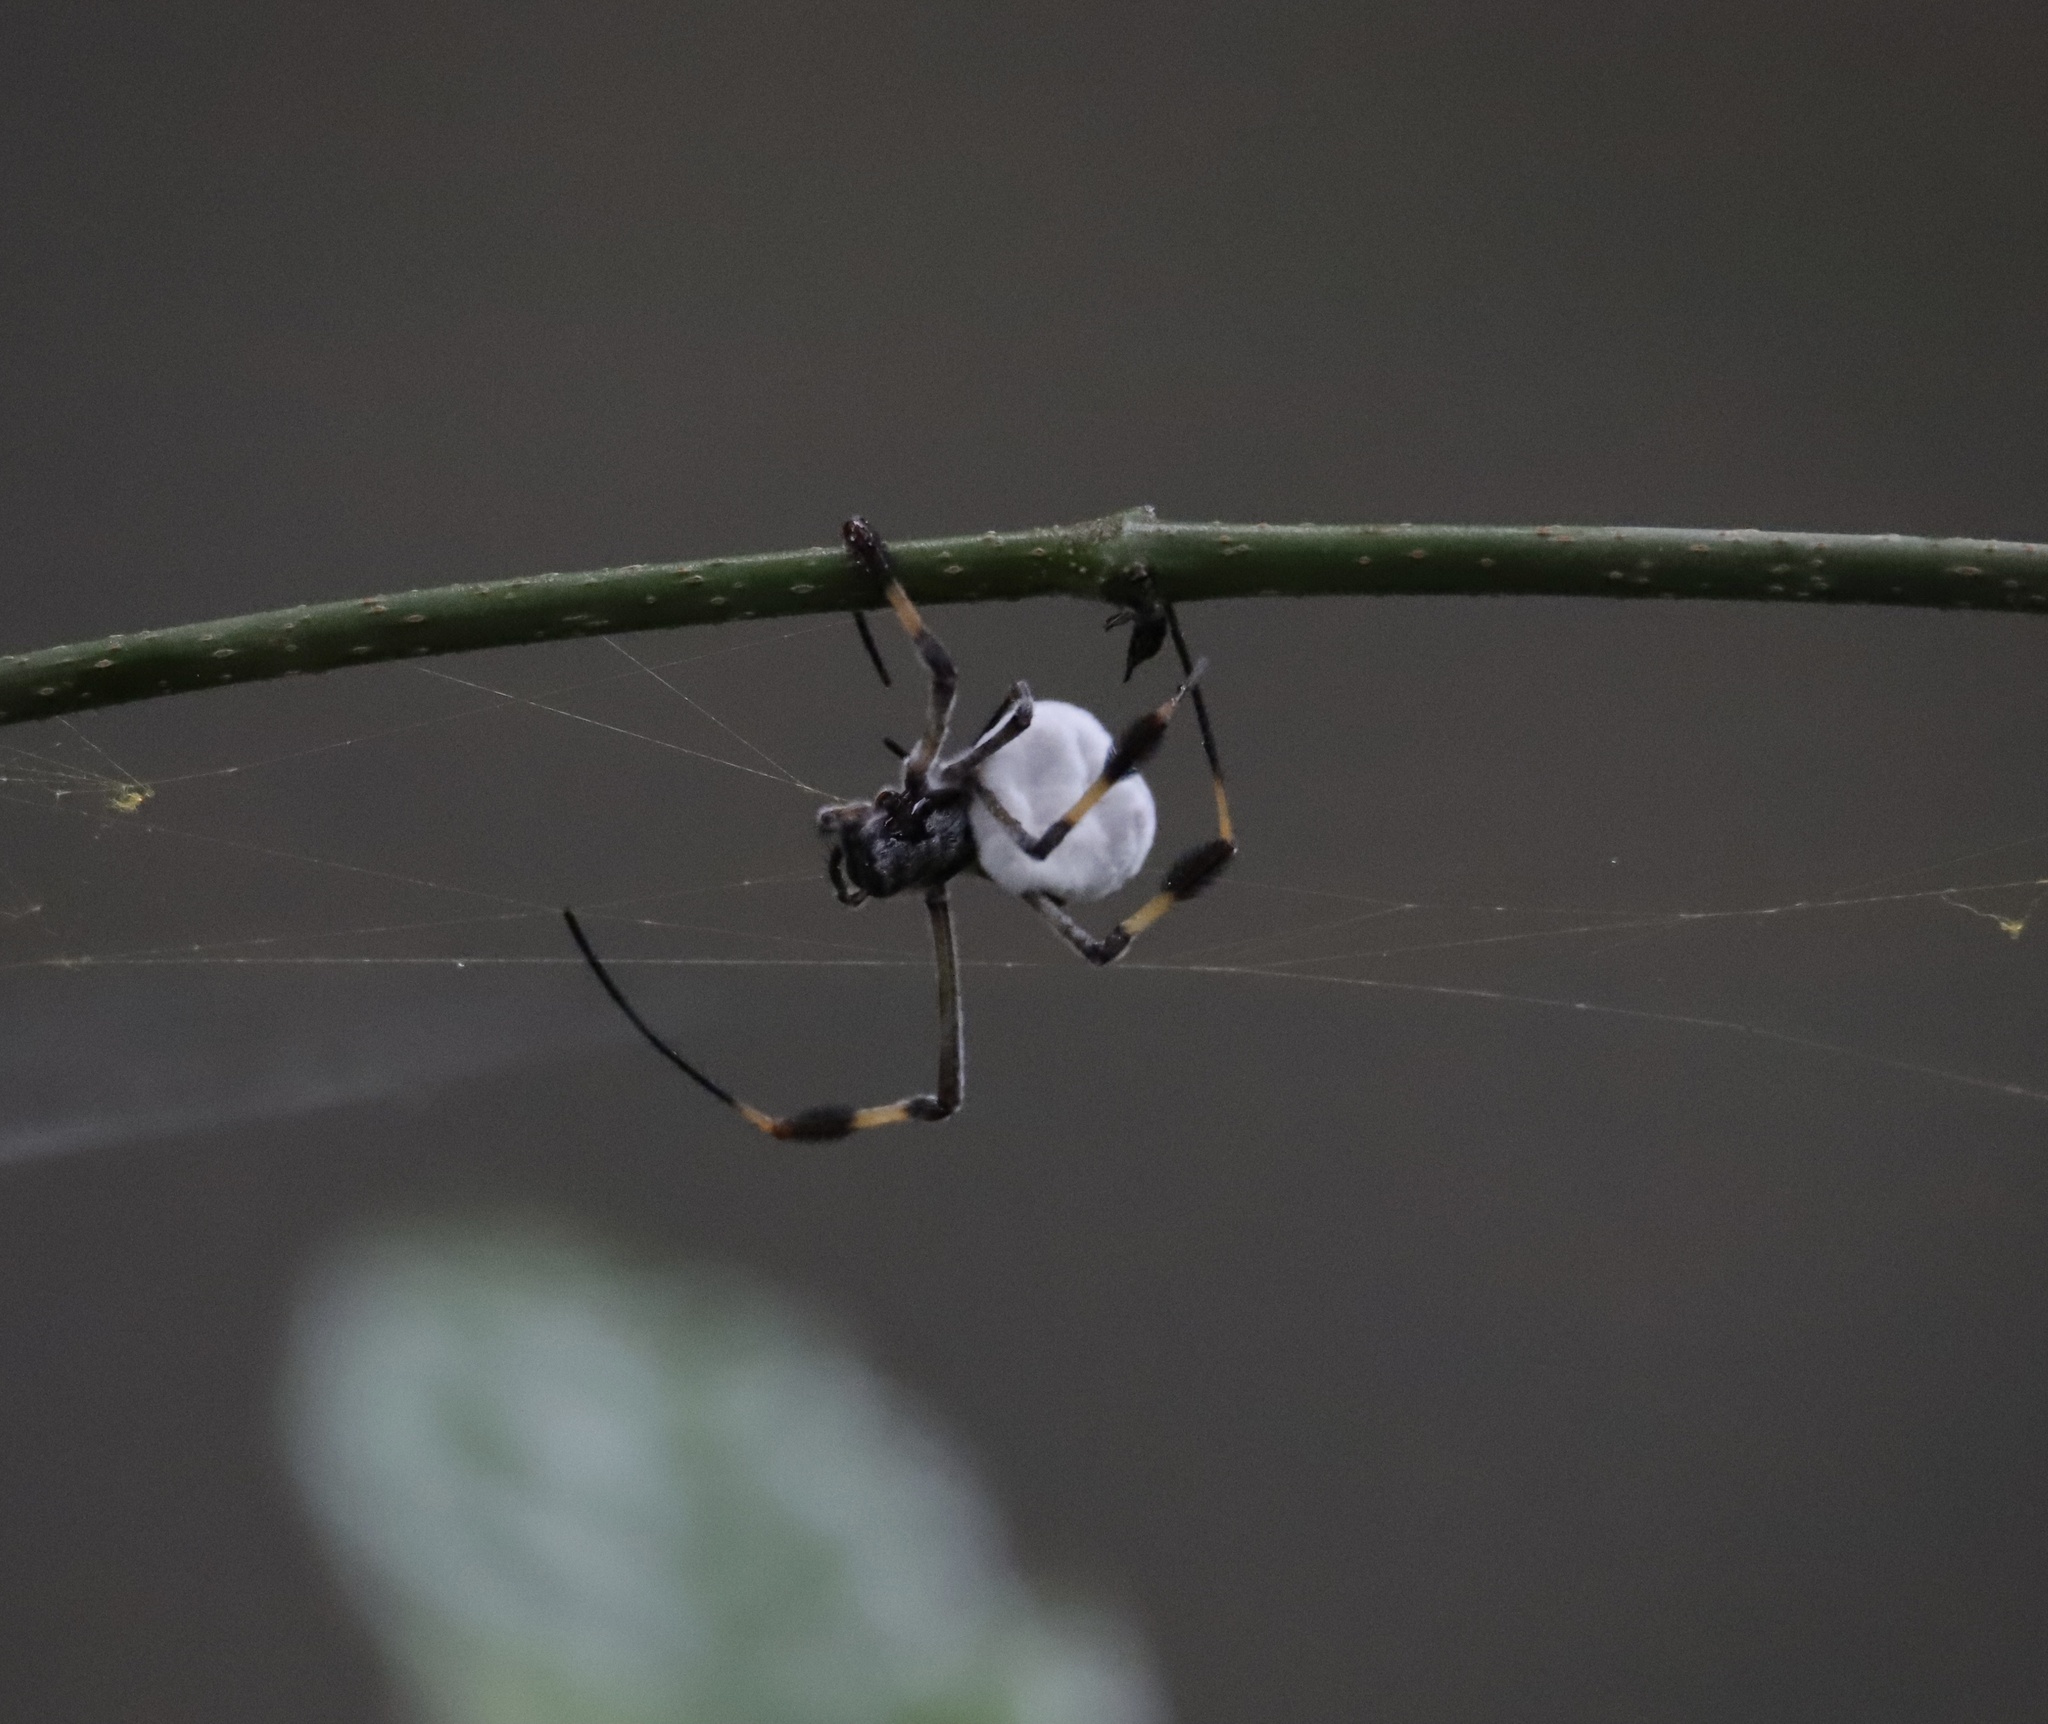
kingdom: Animalia
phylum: Arthropoda
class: Arachnida
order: Araneae
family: Araneidae
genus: Trichonephila
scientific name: Trichonephila clavipes
